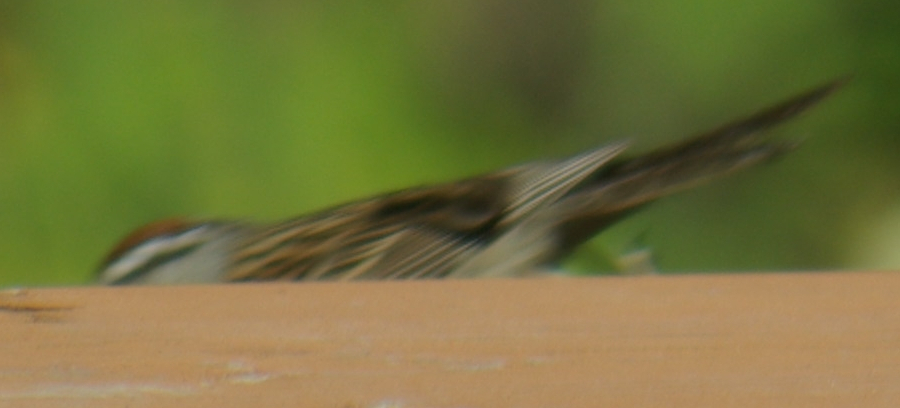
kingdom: Animalia
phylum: Chordata
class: Aves
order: Passeriformes
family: Passerellidae
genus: Spizella
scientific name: Spizella passerina
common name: Chipping sparrow
